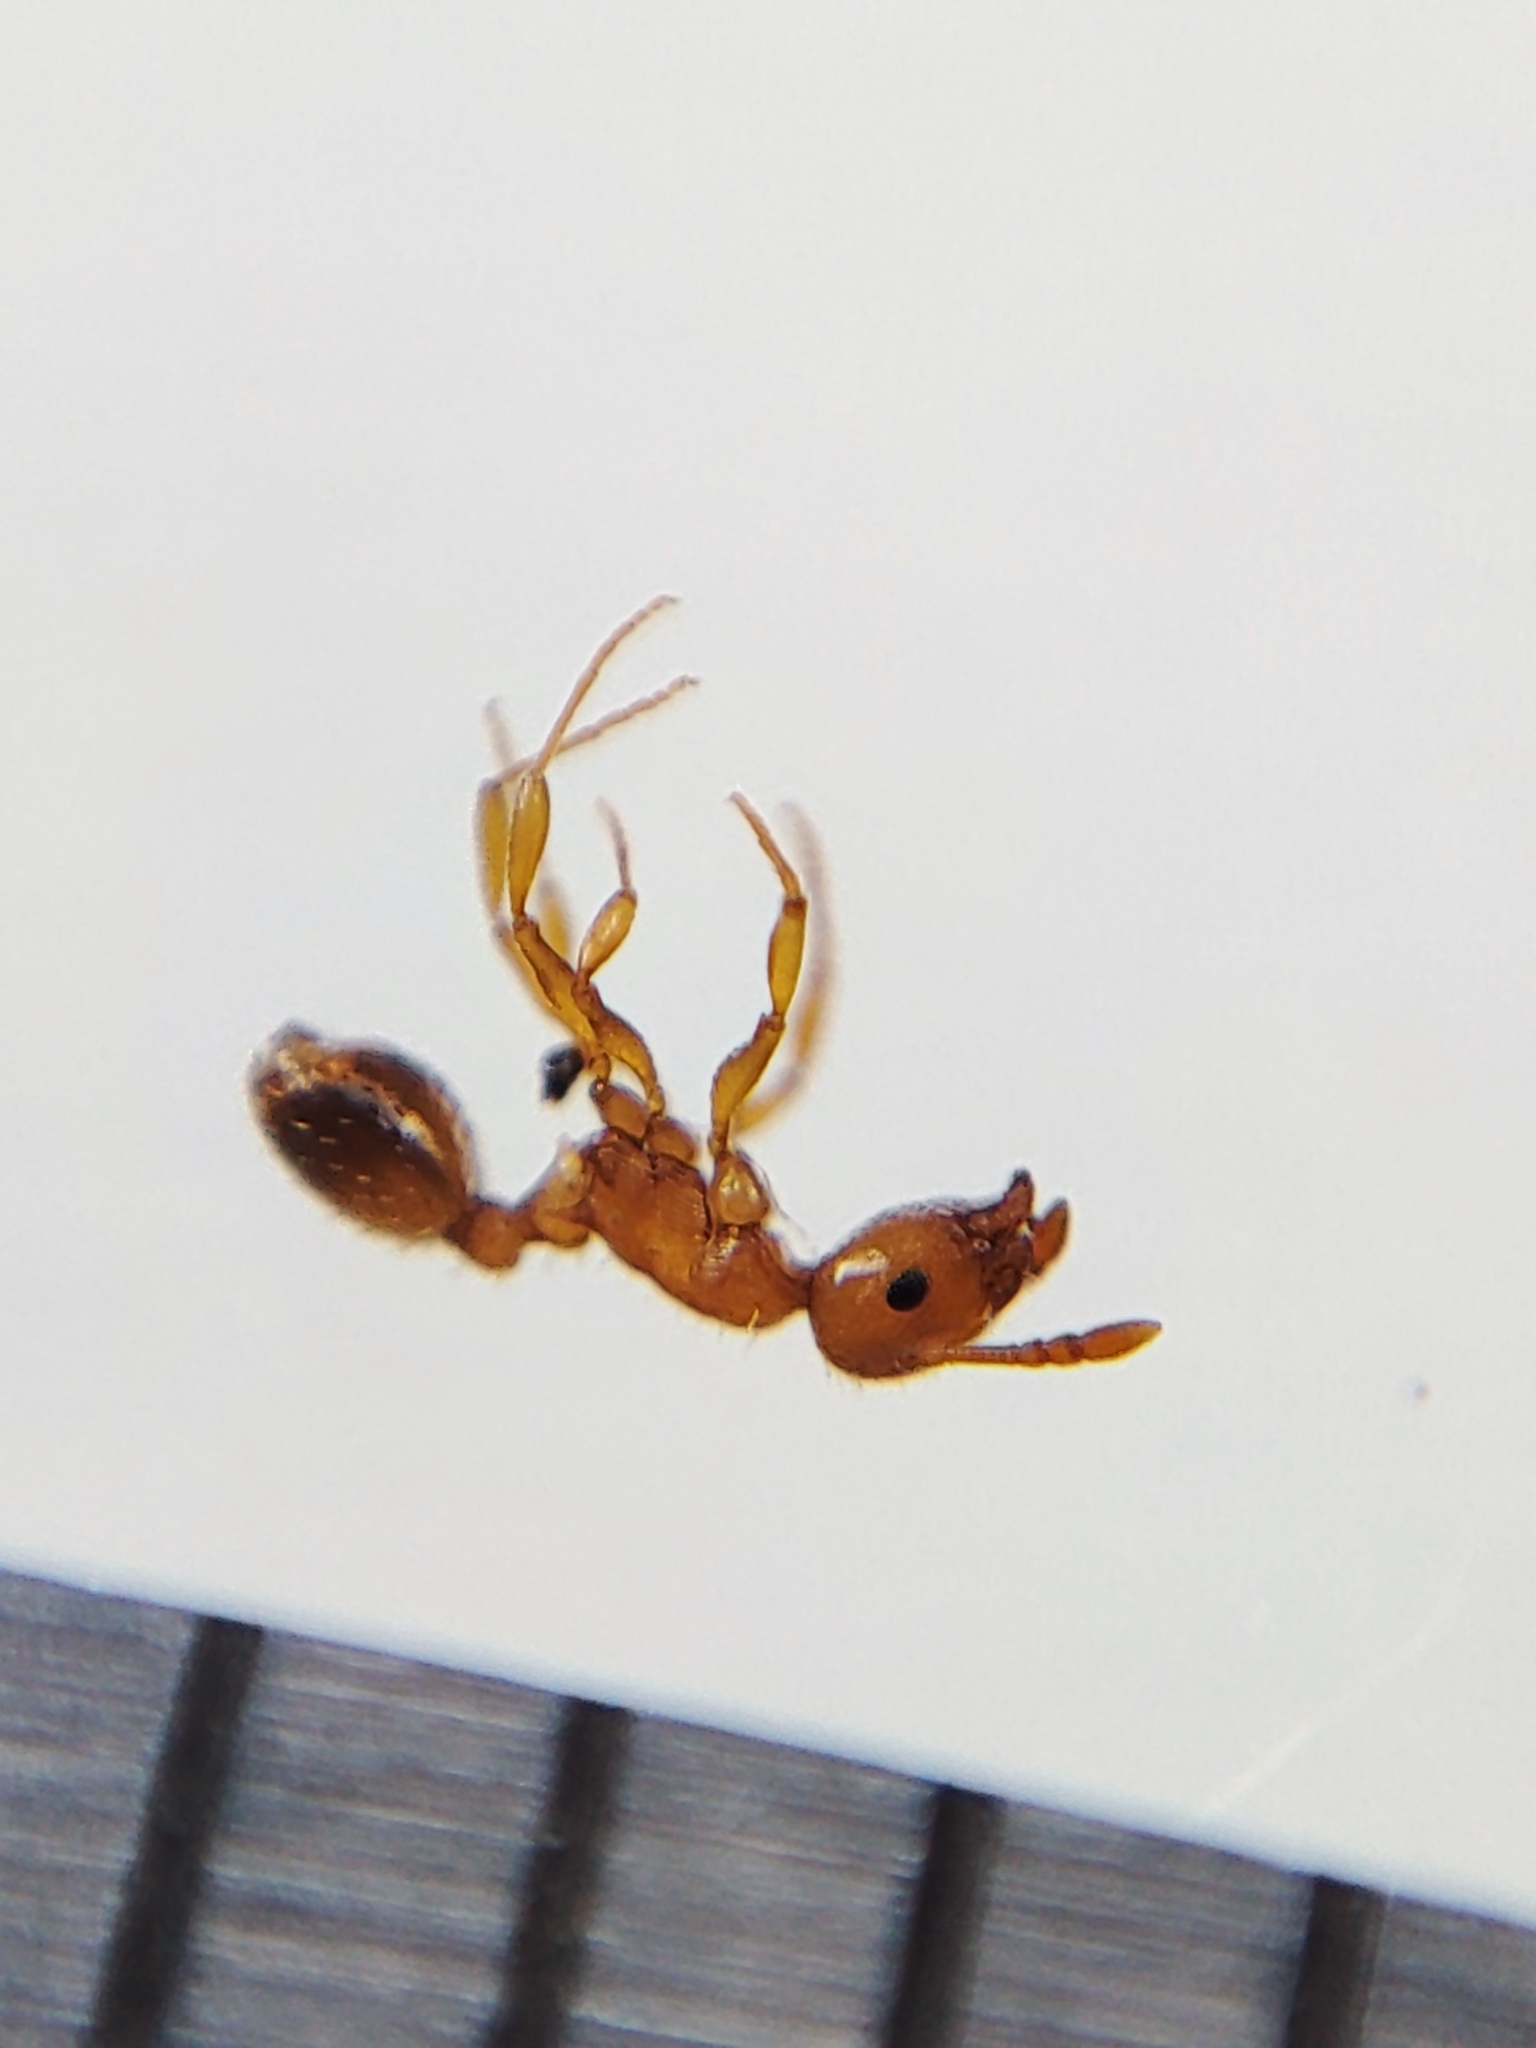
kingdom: Animalia
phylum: Arthropoda
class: Insecta
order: Hymenoptera
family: Formicidae
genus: Temnothorax
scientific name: Temnothorax crassispinus
